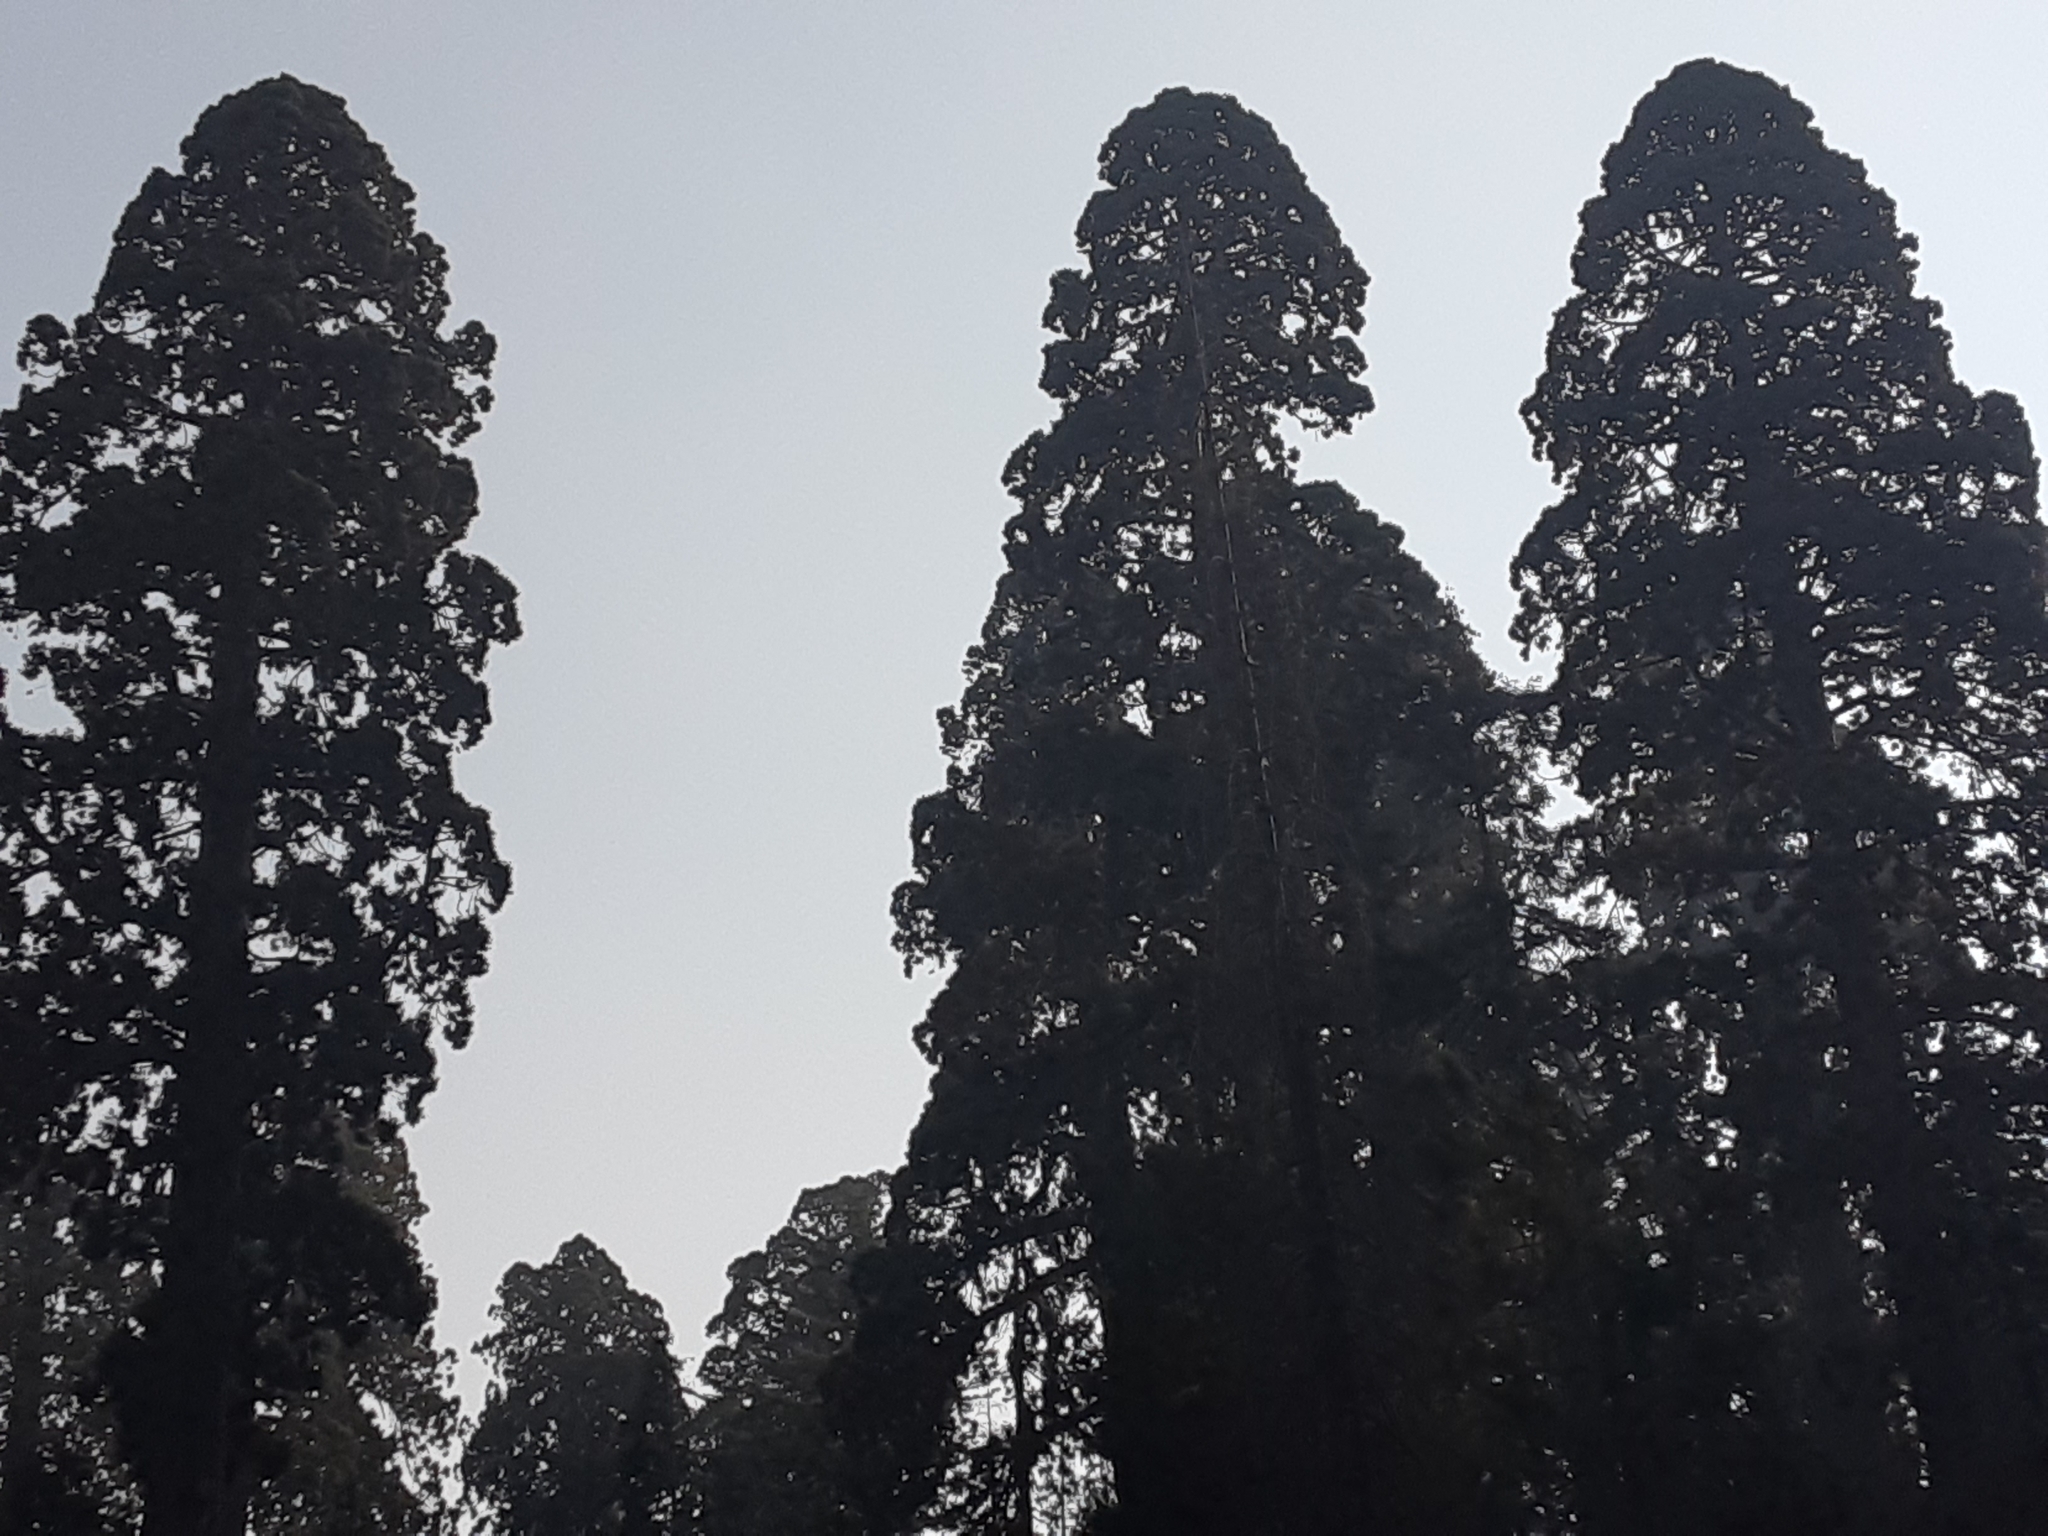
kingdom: Plantae
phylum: Tracheophyta
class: Pinopsida
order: Pinales
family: Cupressaceae
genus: Sequoiadendron
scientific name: Sequoiadendron giganteum
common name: Wellingtonia
